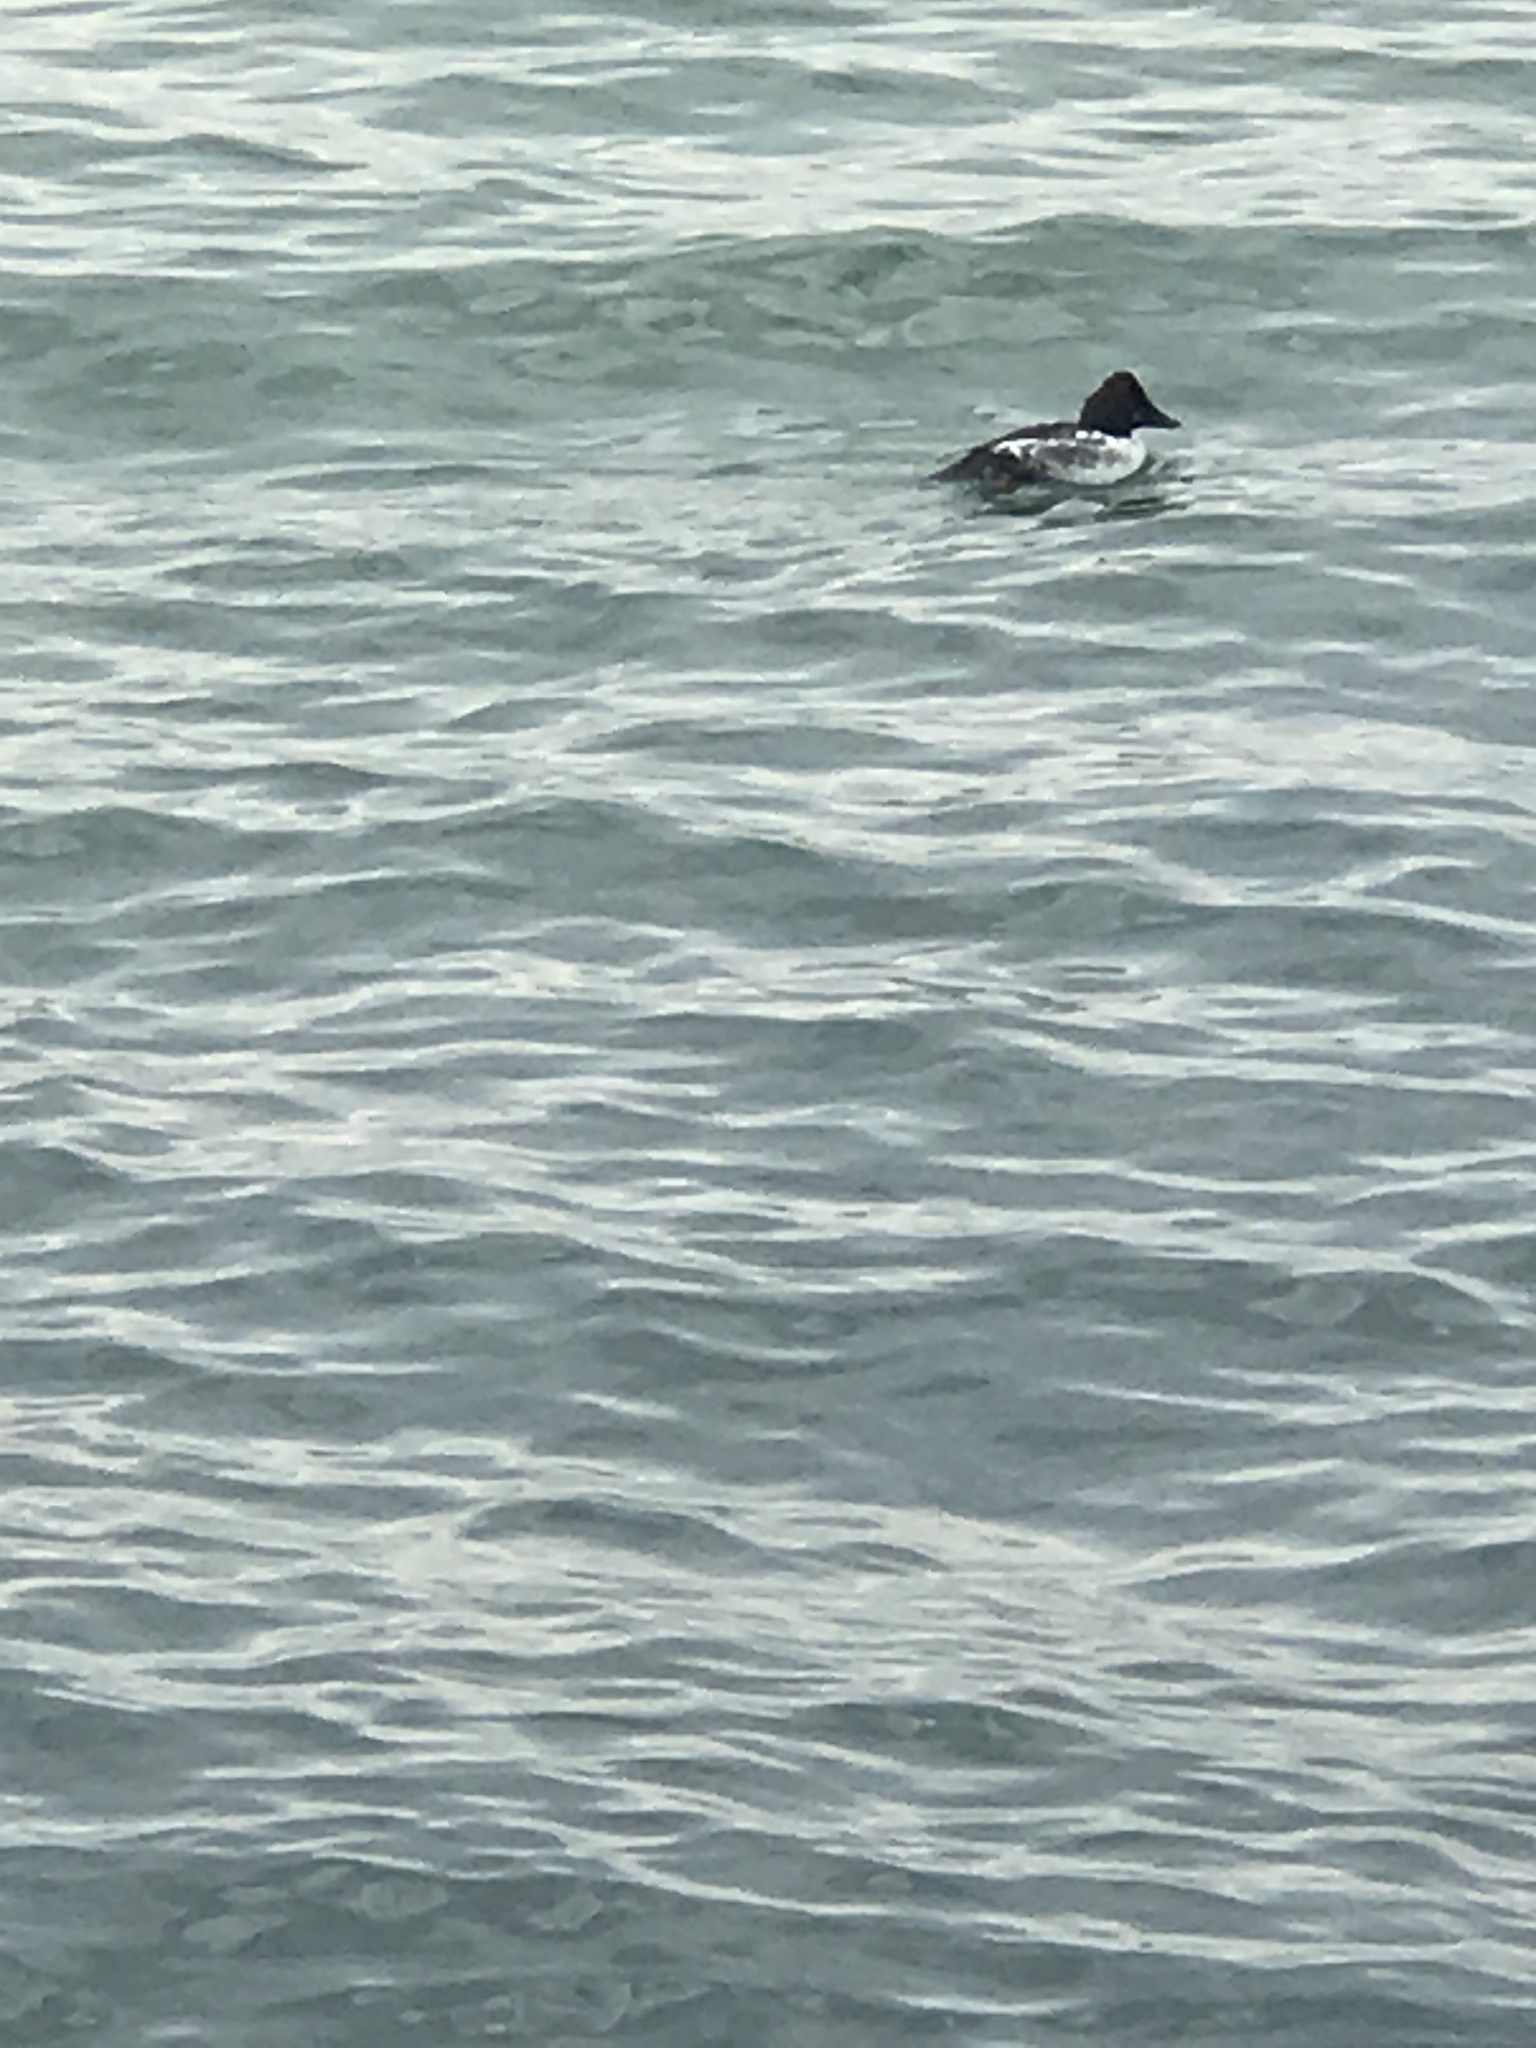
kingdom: Animalia
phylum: Chordata
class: Aves
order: Anseriformes
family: Anatidae
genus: Bucephala
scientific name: Bucephala clangula
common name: Common goldeneye
